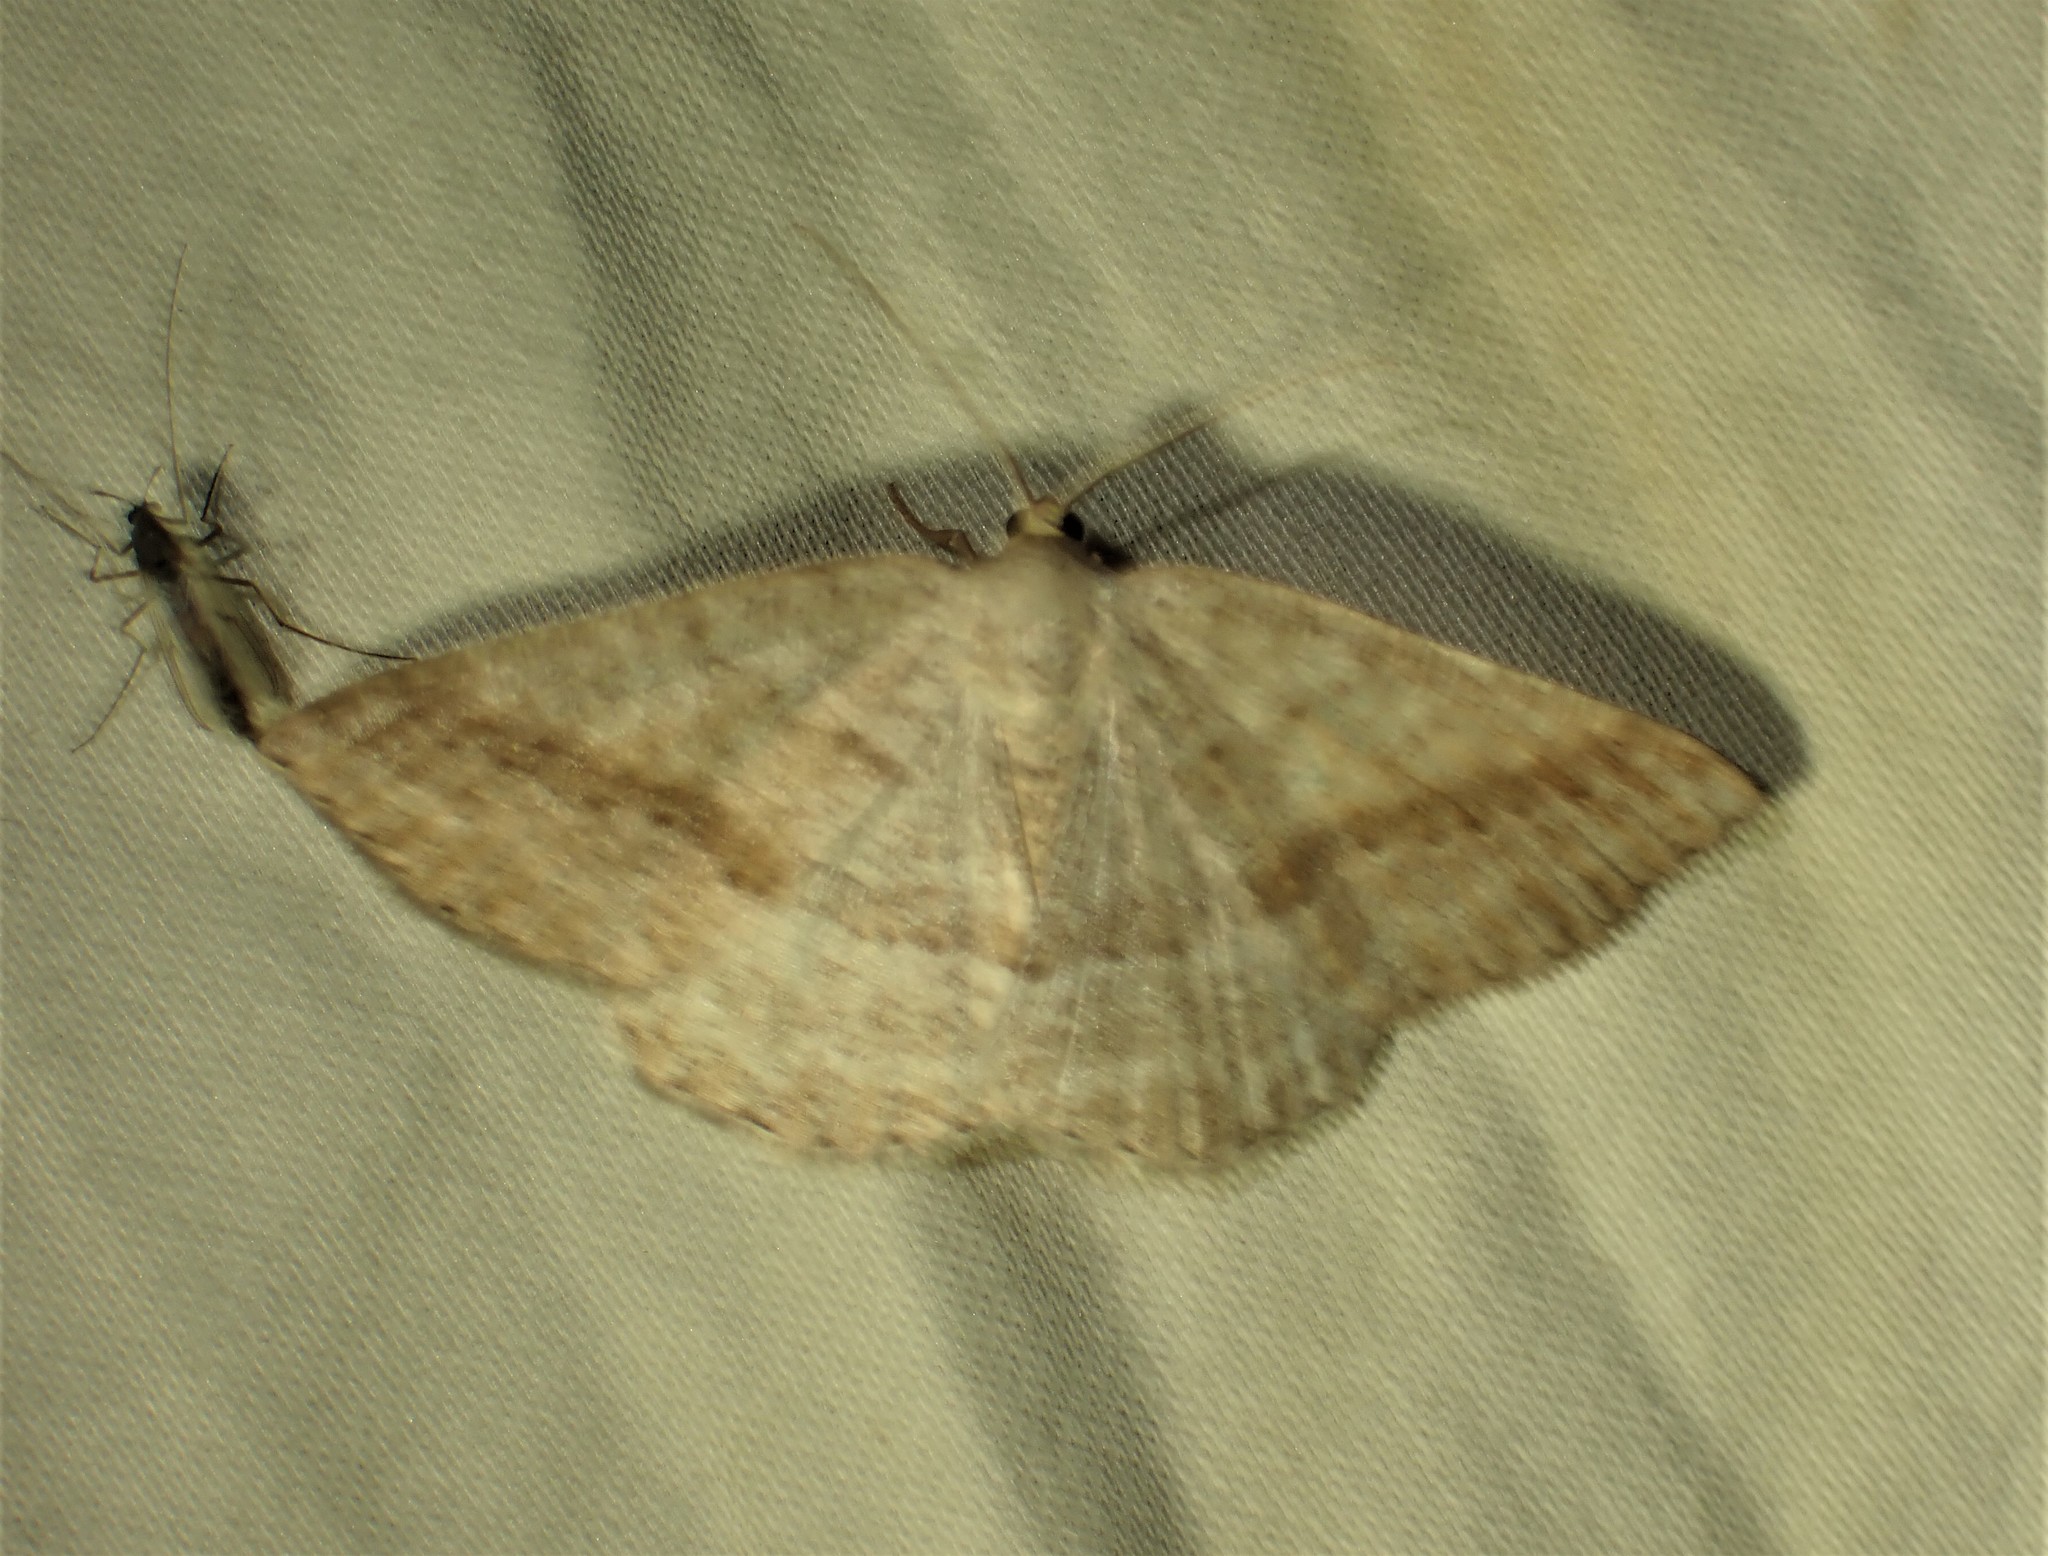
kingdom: Animalia
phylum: Arthropoda
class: Insecta
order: Lepidoptera
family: Geometridae
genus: Tacparia
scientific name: Tacparia detersata
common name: Pale alder moth
